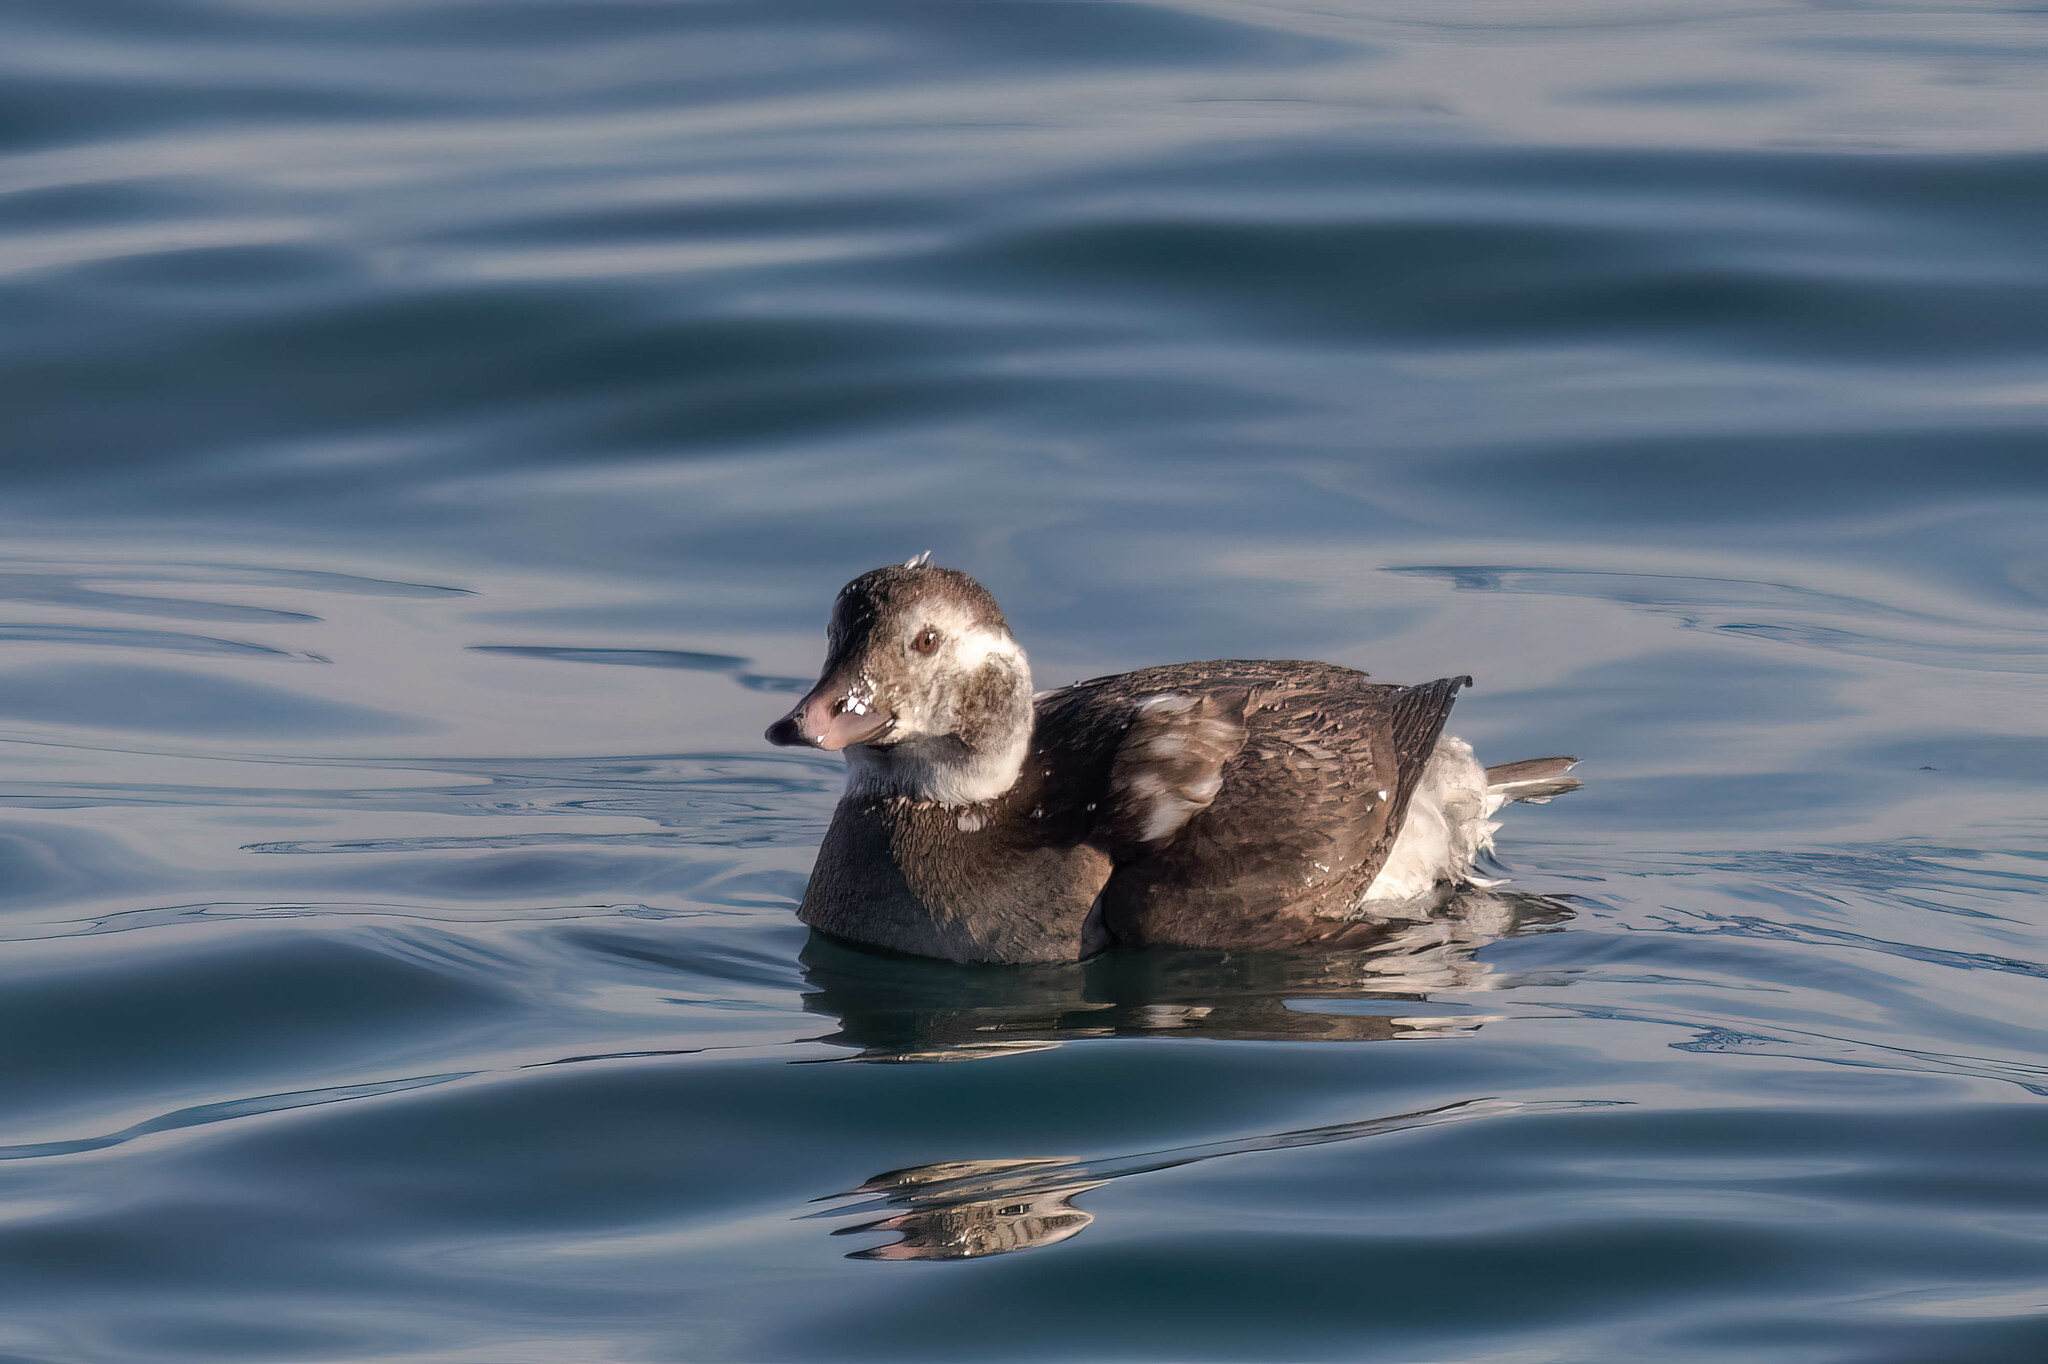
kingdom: Animalia
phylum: Chordata
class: Aves
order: Anseriformes
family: Anatidae
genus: Clangula
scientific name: Clangula hyemalis
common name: Long-tailed duck
